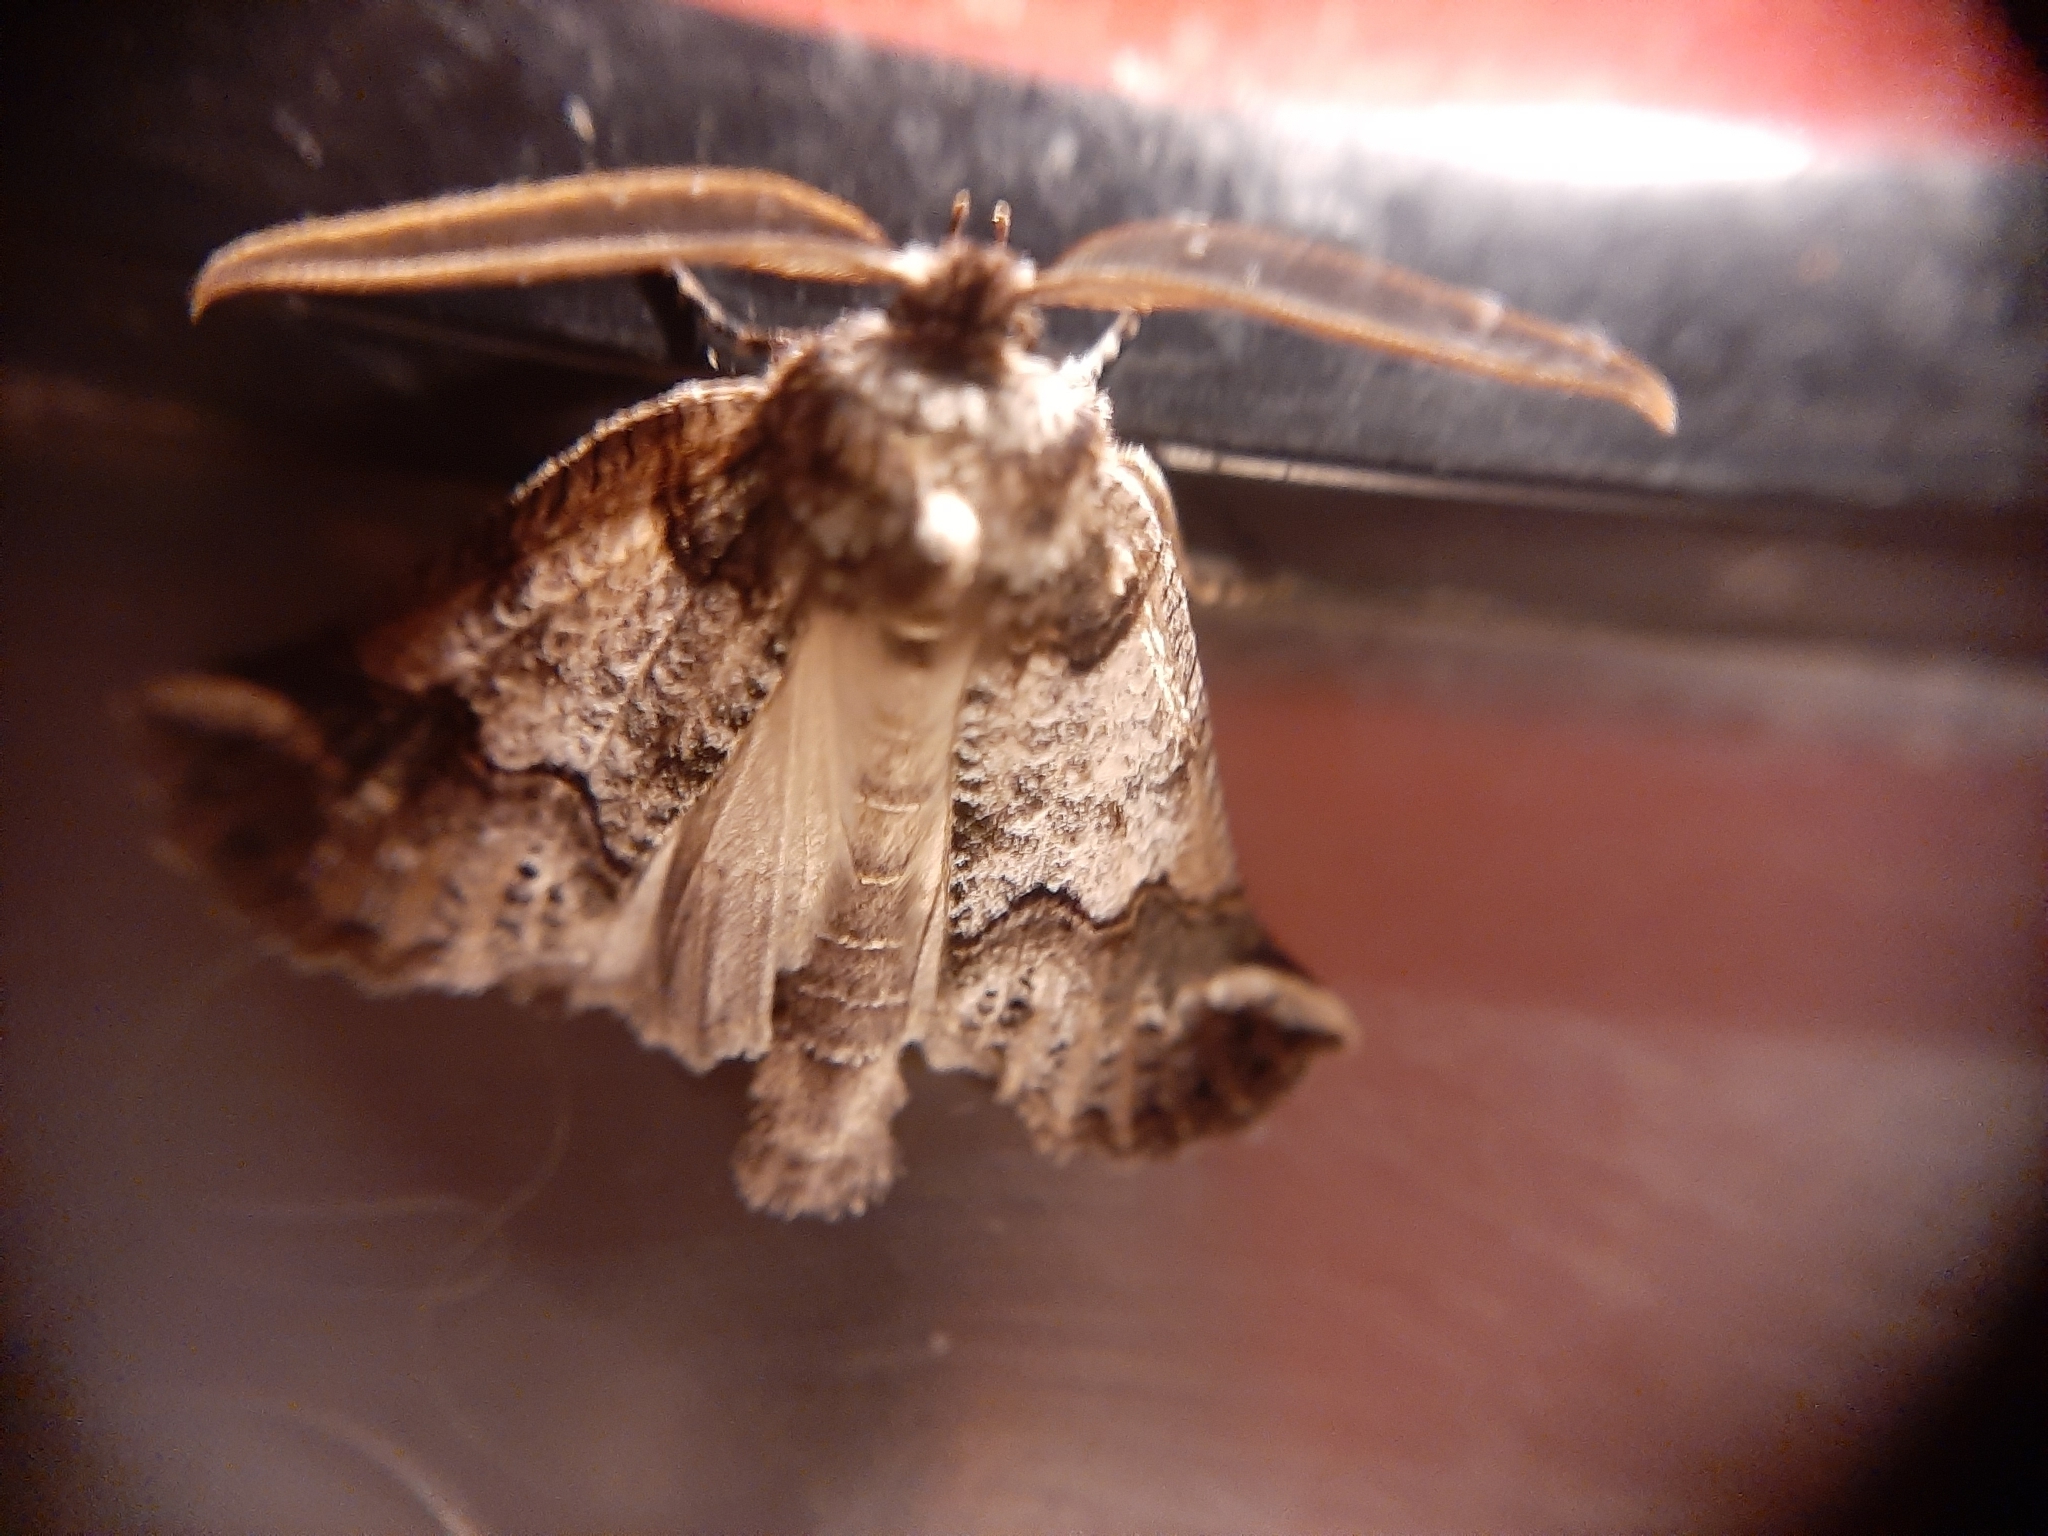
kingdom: Animalia
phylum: Arthropoda
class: Insecta
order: Lepidoptera
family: Geometridae
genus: Declana
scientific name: Declana
